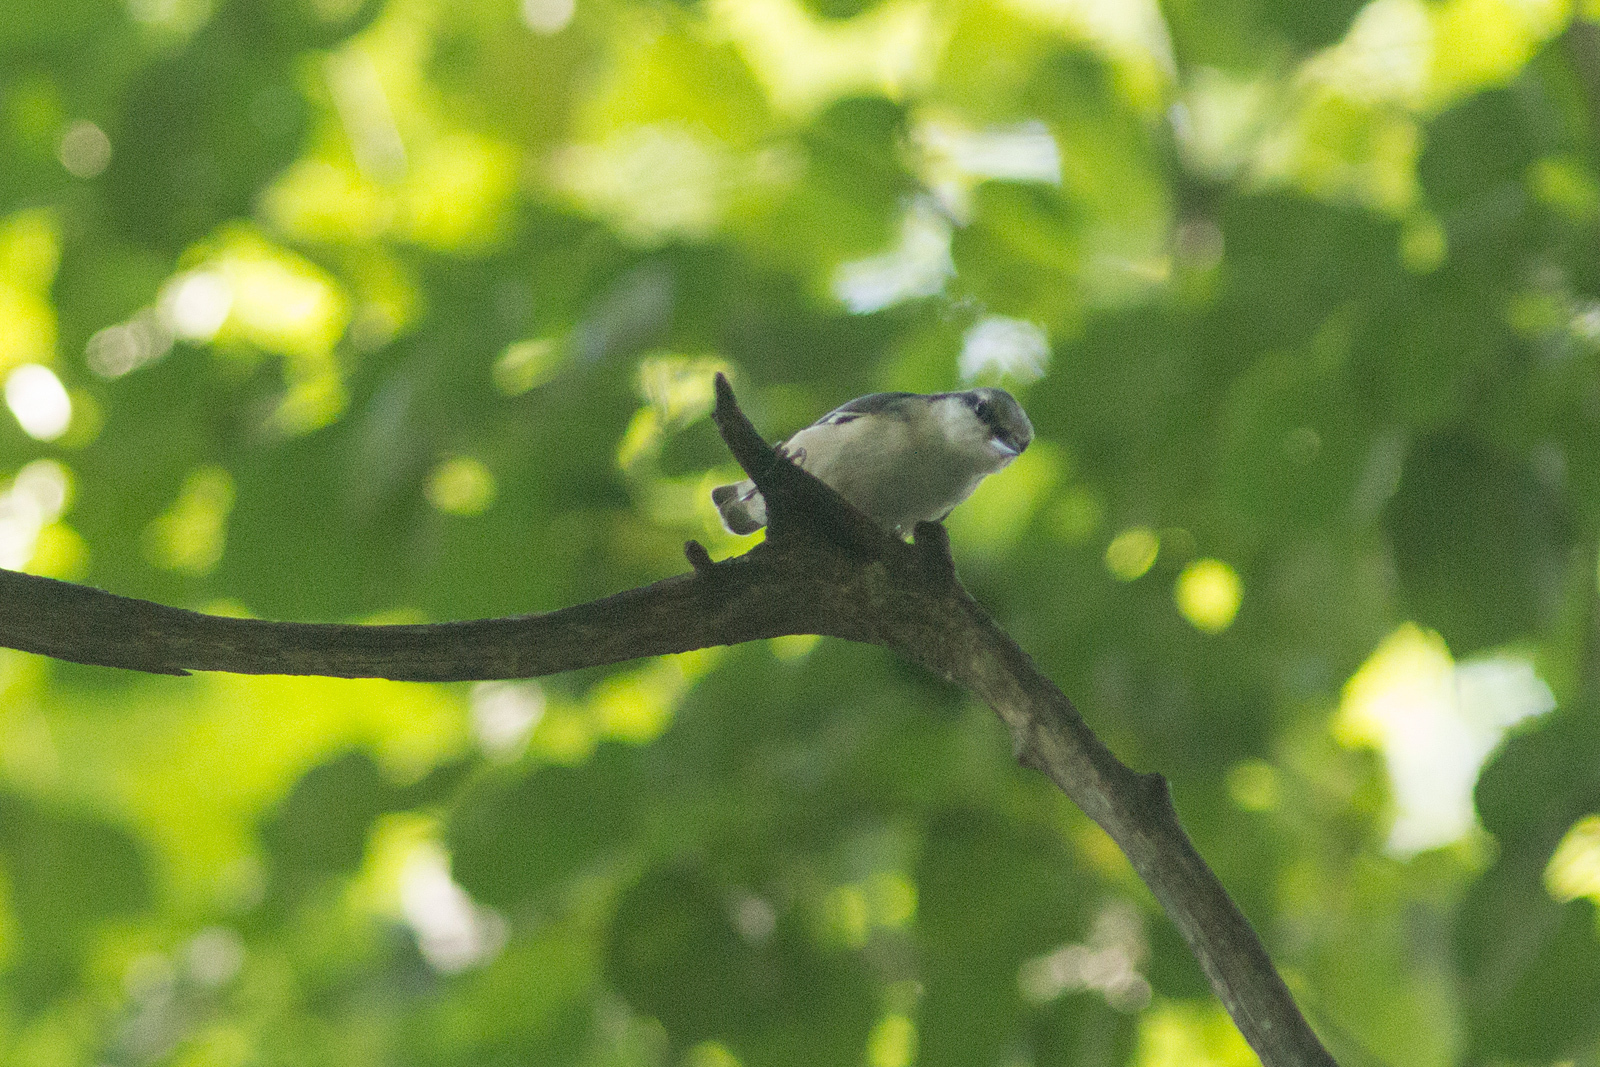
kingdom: Animalia
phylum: Chordata
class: Aves
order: Passeriformes
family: Sittidae
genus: Sitta
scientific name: Sitta europaea
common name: Eurasian nuthatch
